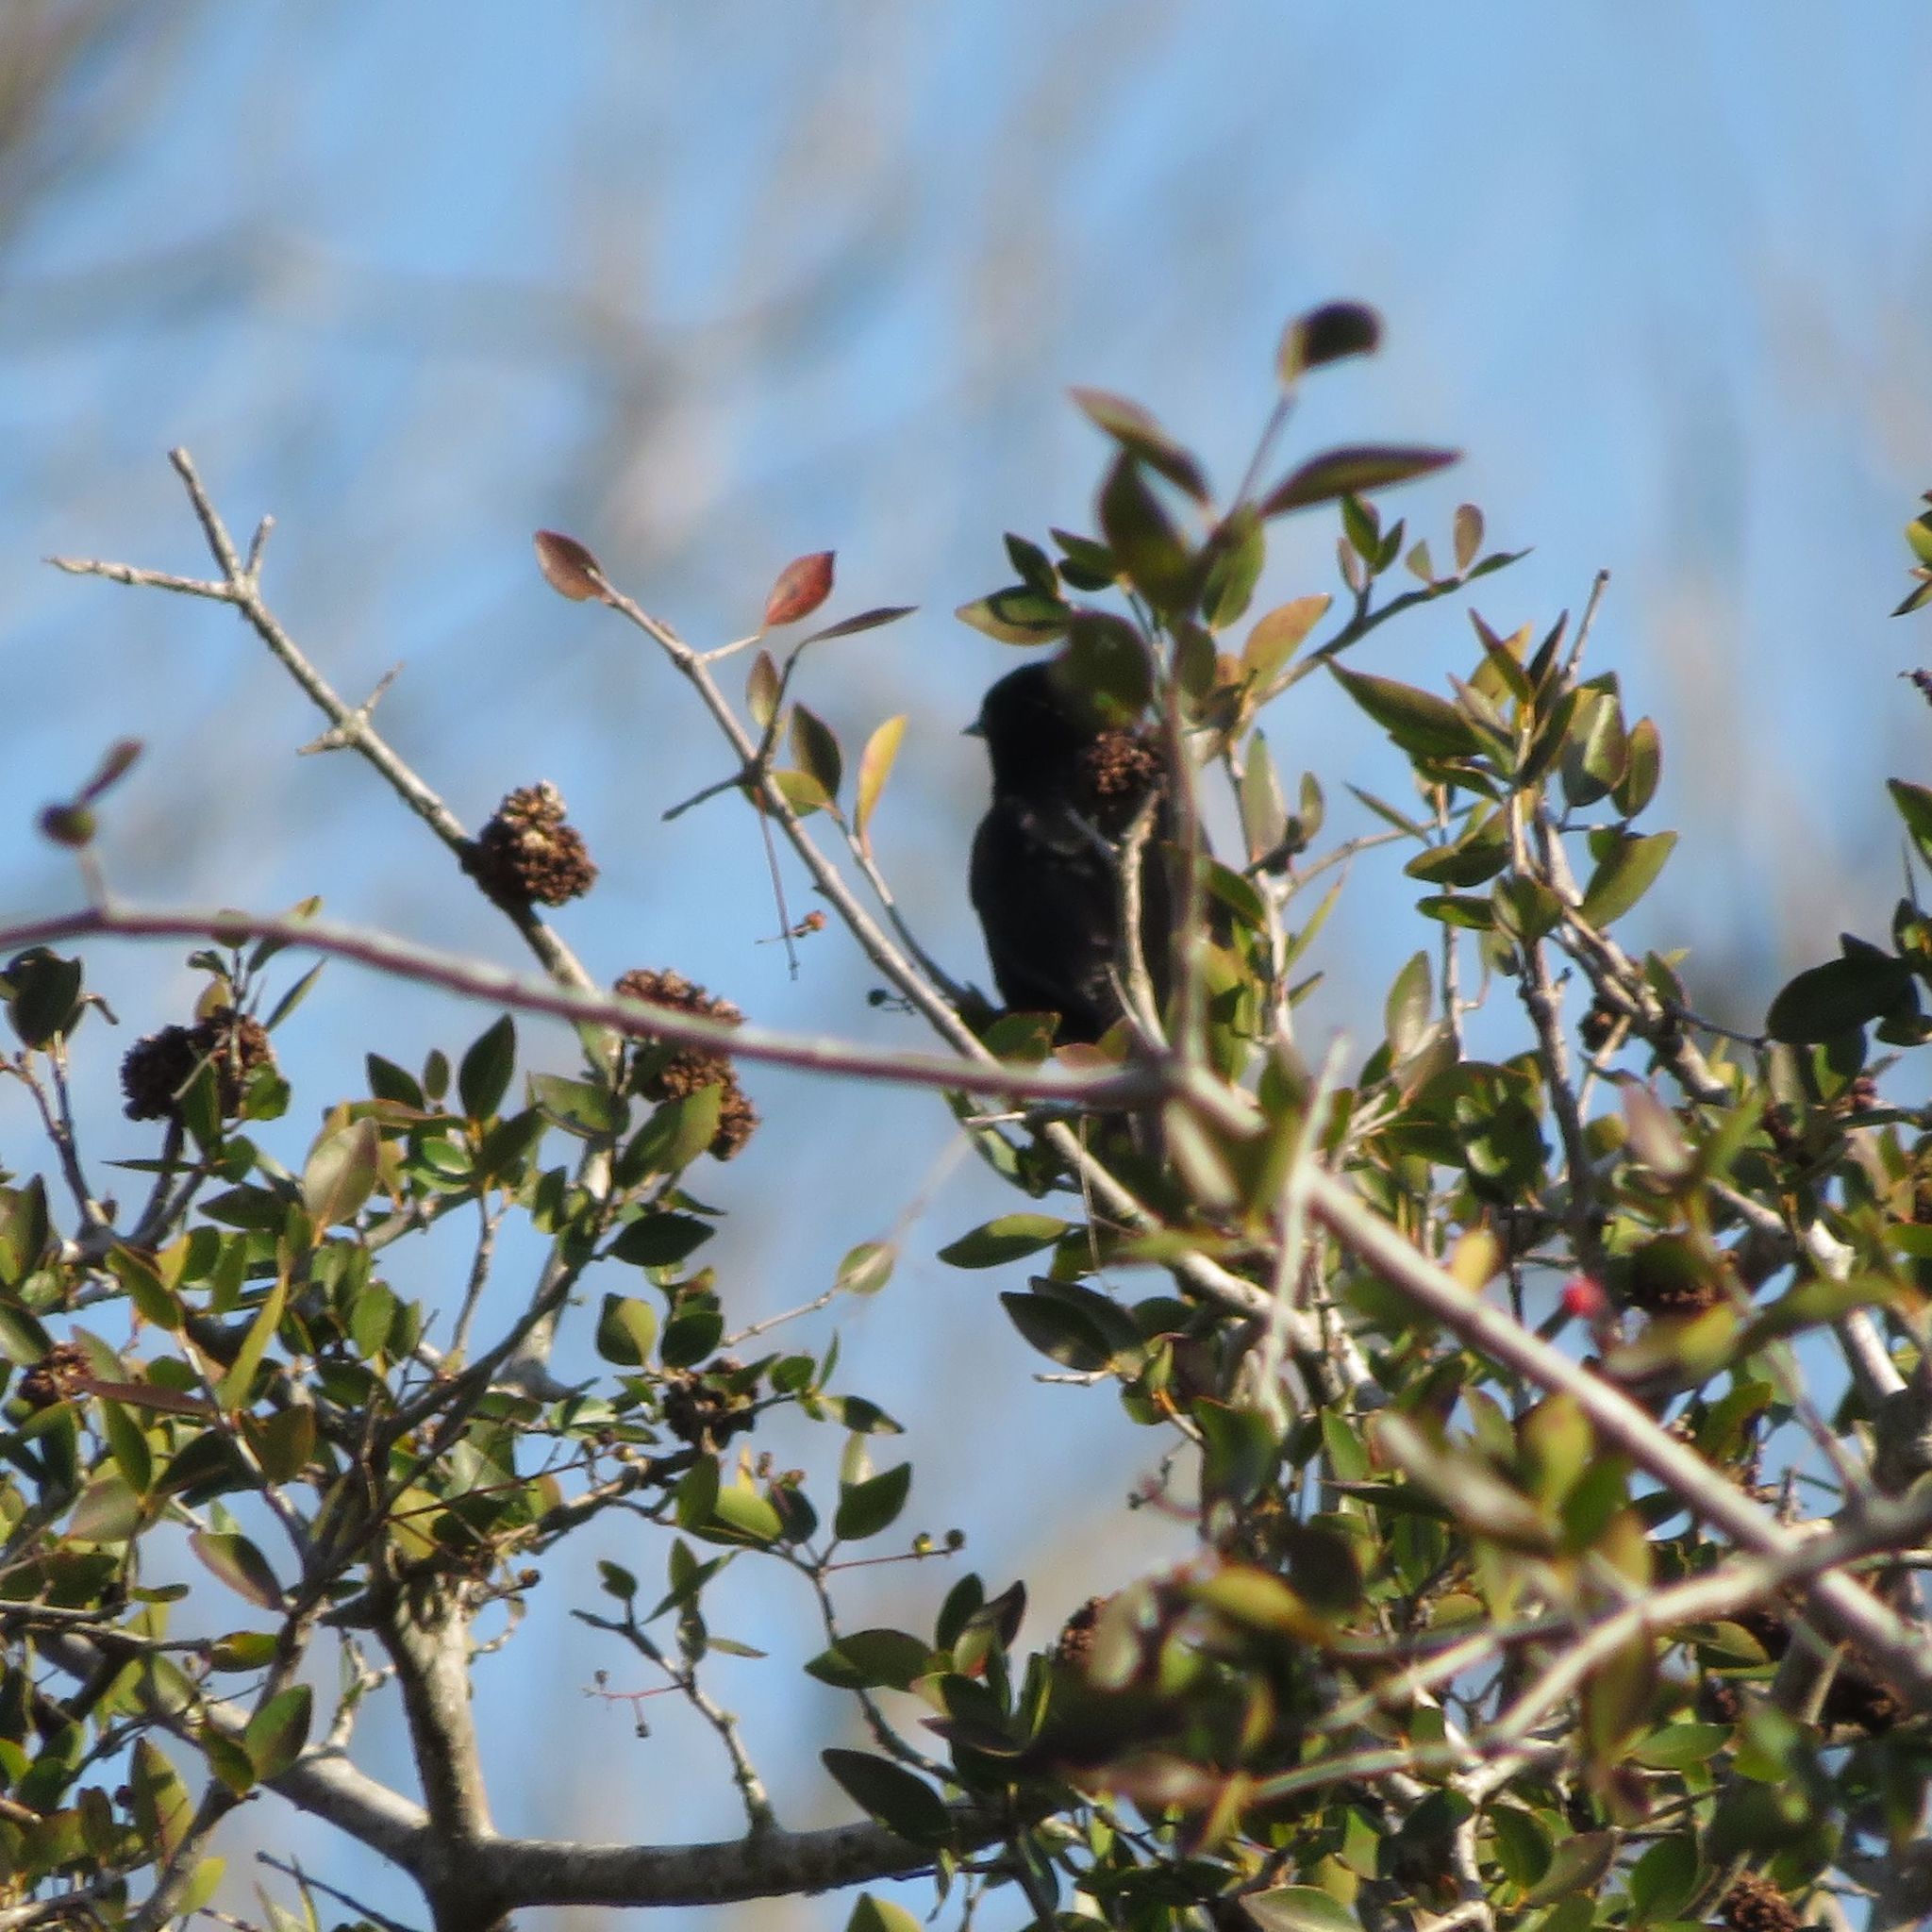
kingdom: Animalia
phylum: Chordata
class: Aves
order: Passeriformes
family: Icteridae
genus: Icterus
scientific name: Icterus cayanensis
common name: Epaulet oriole
